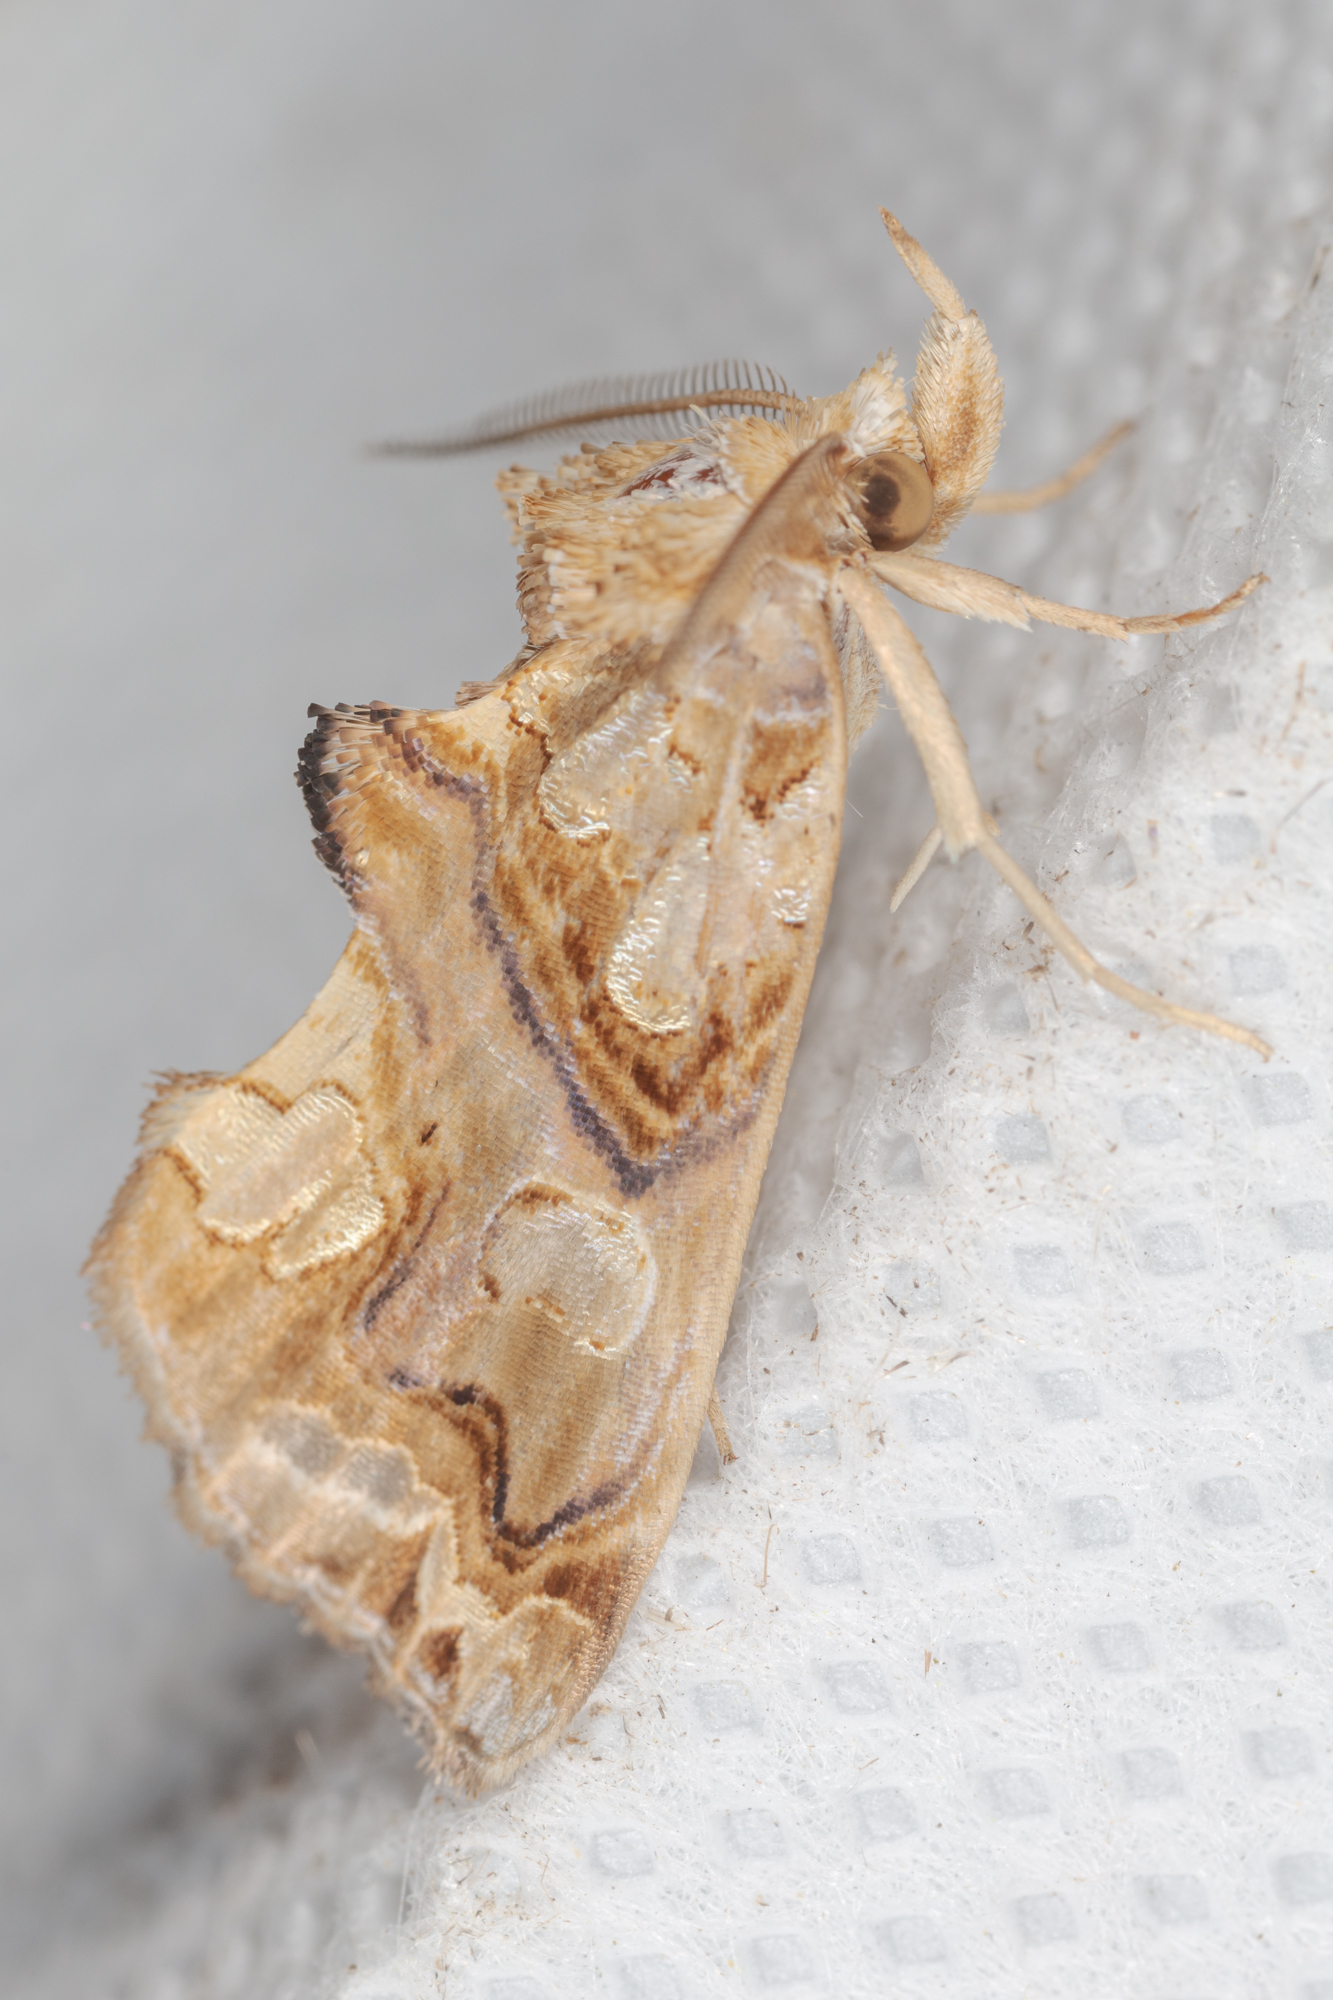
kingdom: Animalia
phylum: Arthropoda
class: Insecta
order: Lepidoptera
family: Erebidae
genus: Plusiodonta
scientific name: Plusiodonta compressipalpis
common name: Moonseed moth
